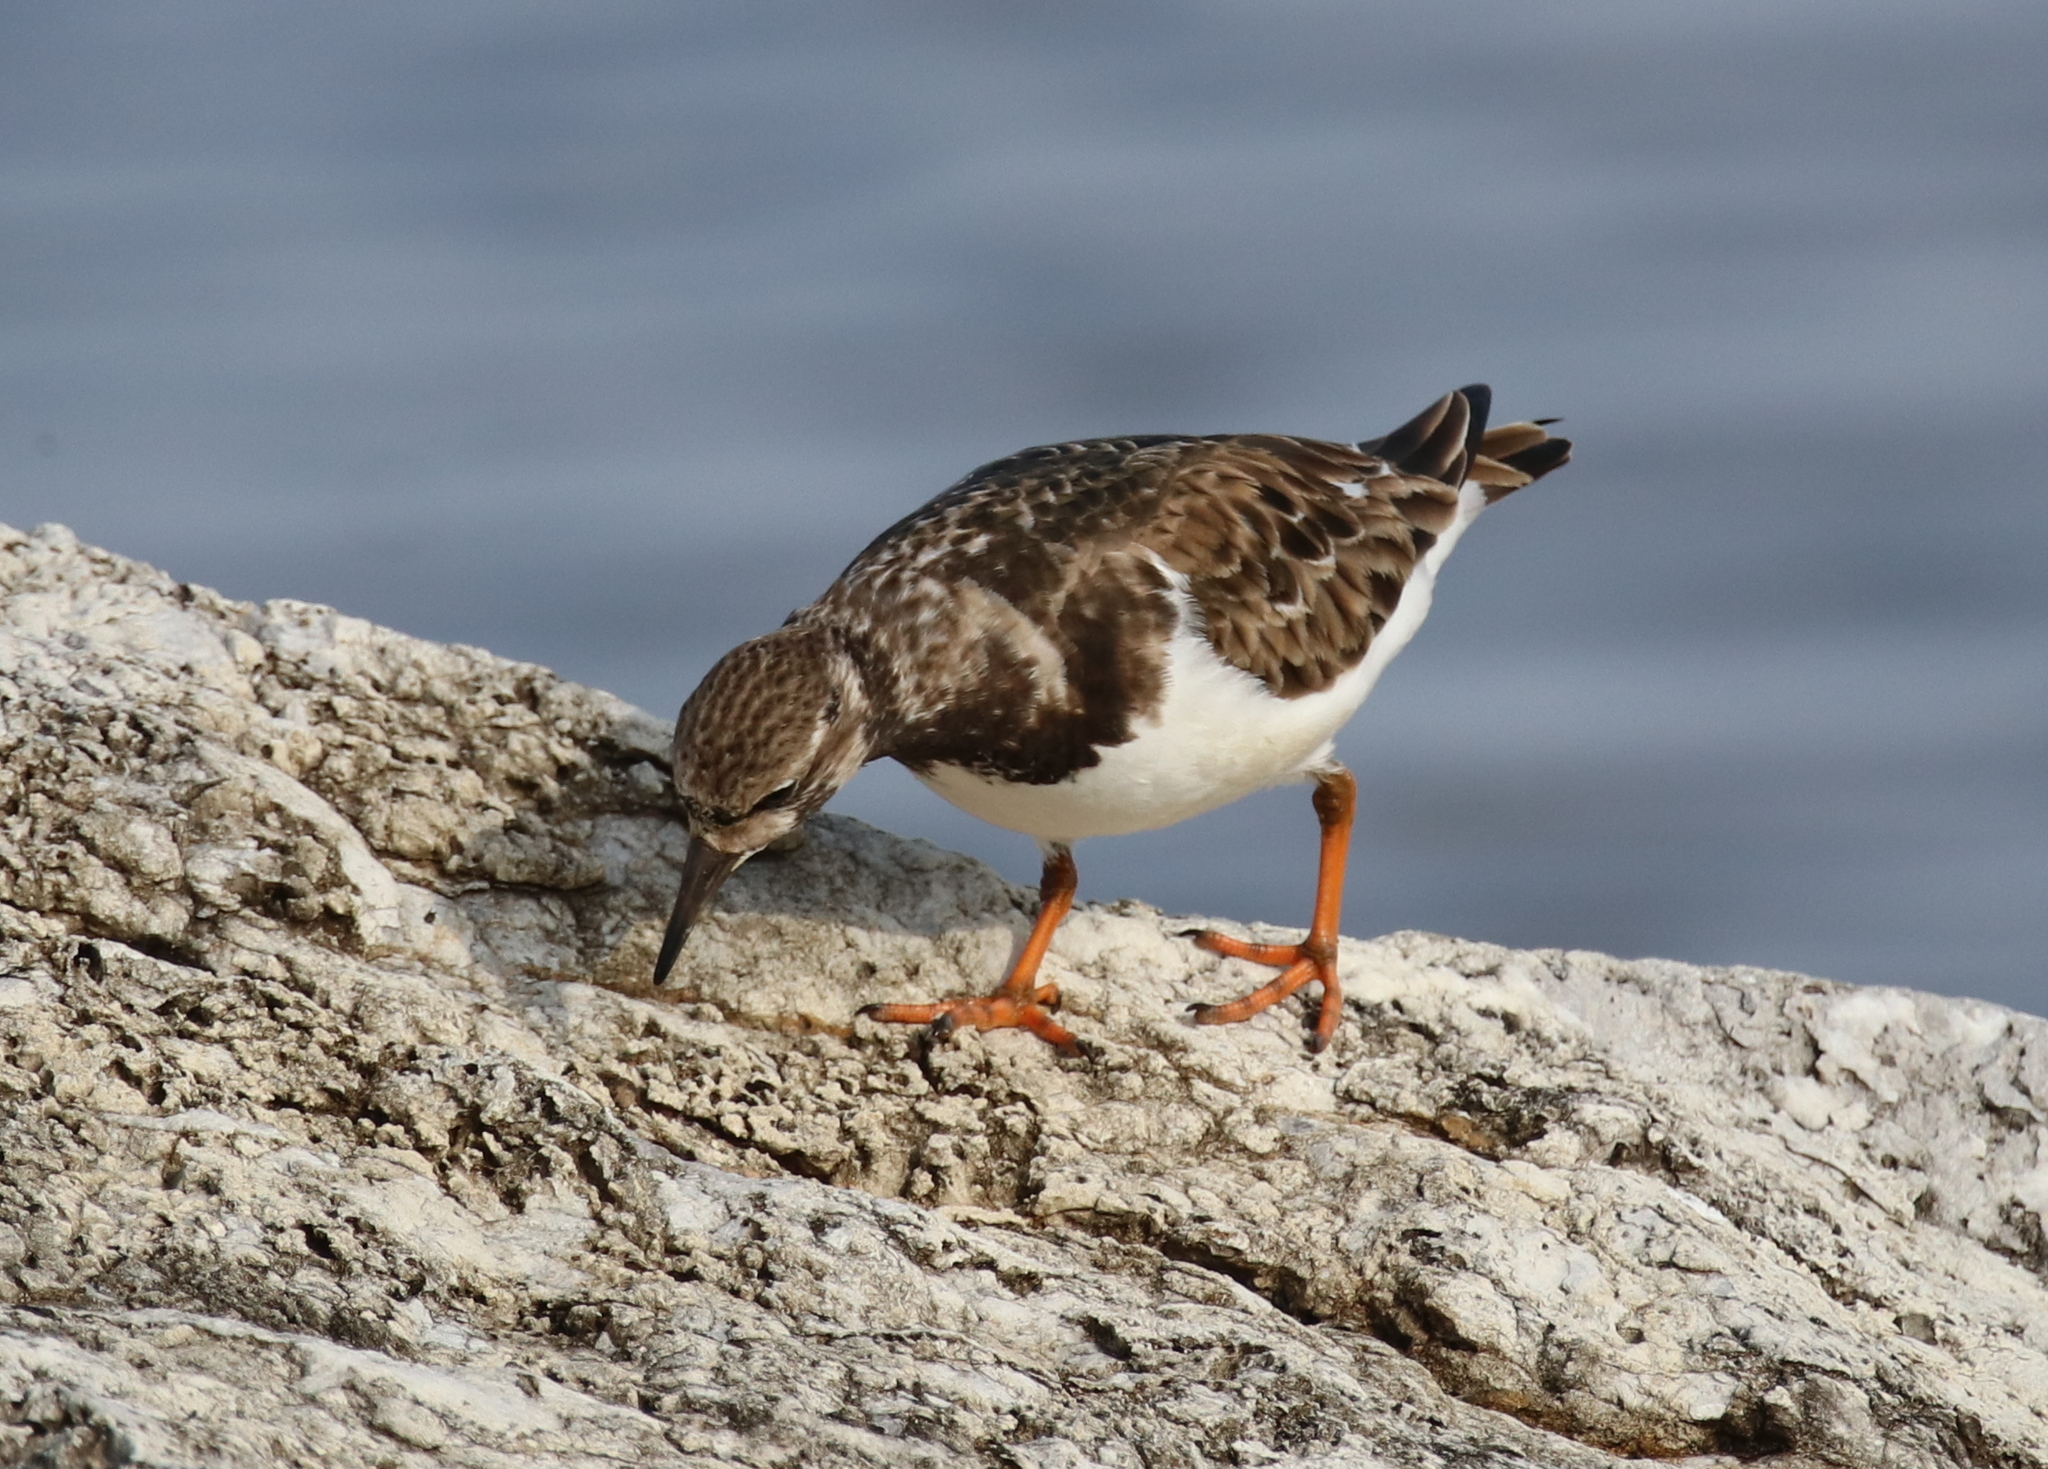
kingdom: Animalia
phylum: Chordata
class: Aves
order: Charadriiformes
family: Scolopacidae
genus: Arenaria
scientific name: Arenaria interpres
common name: Ruddy turnstone
